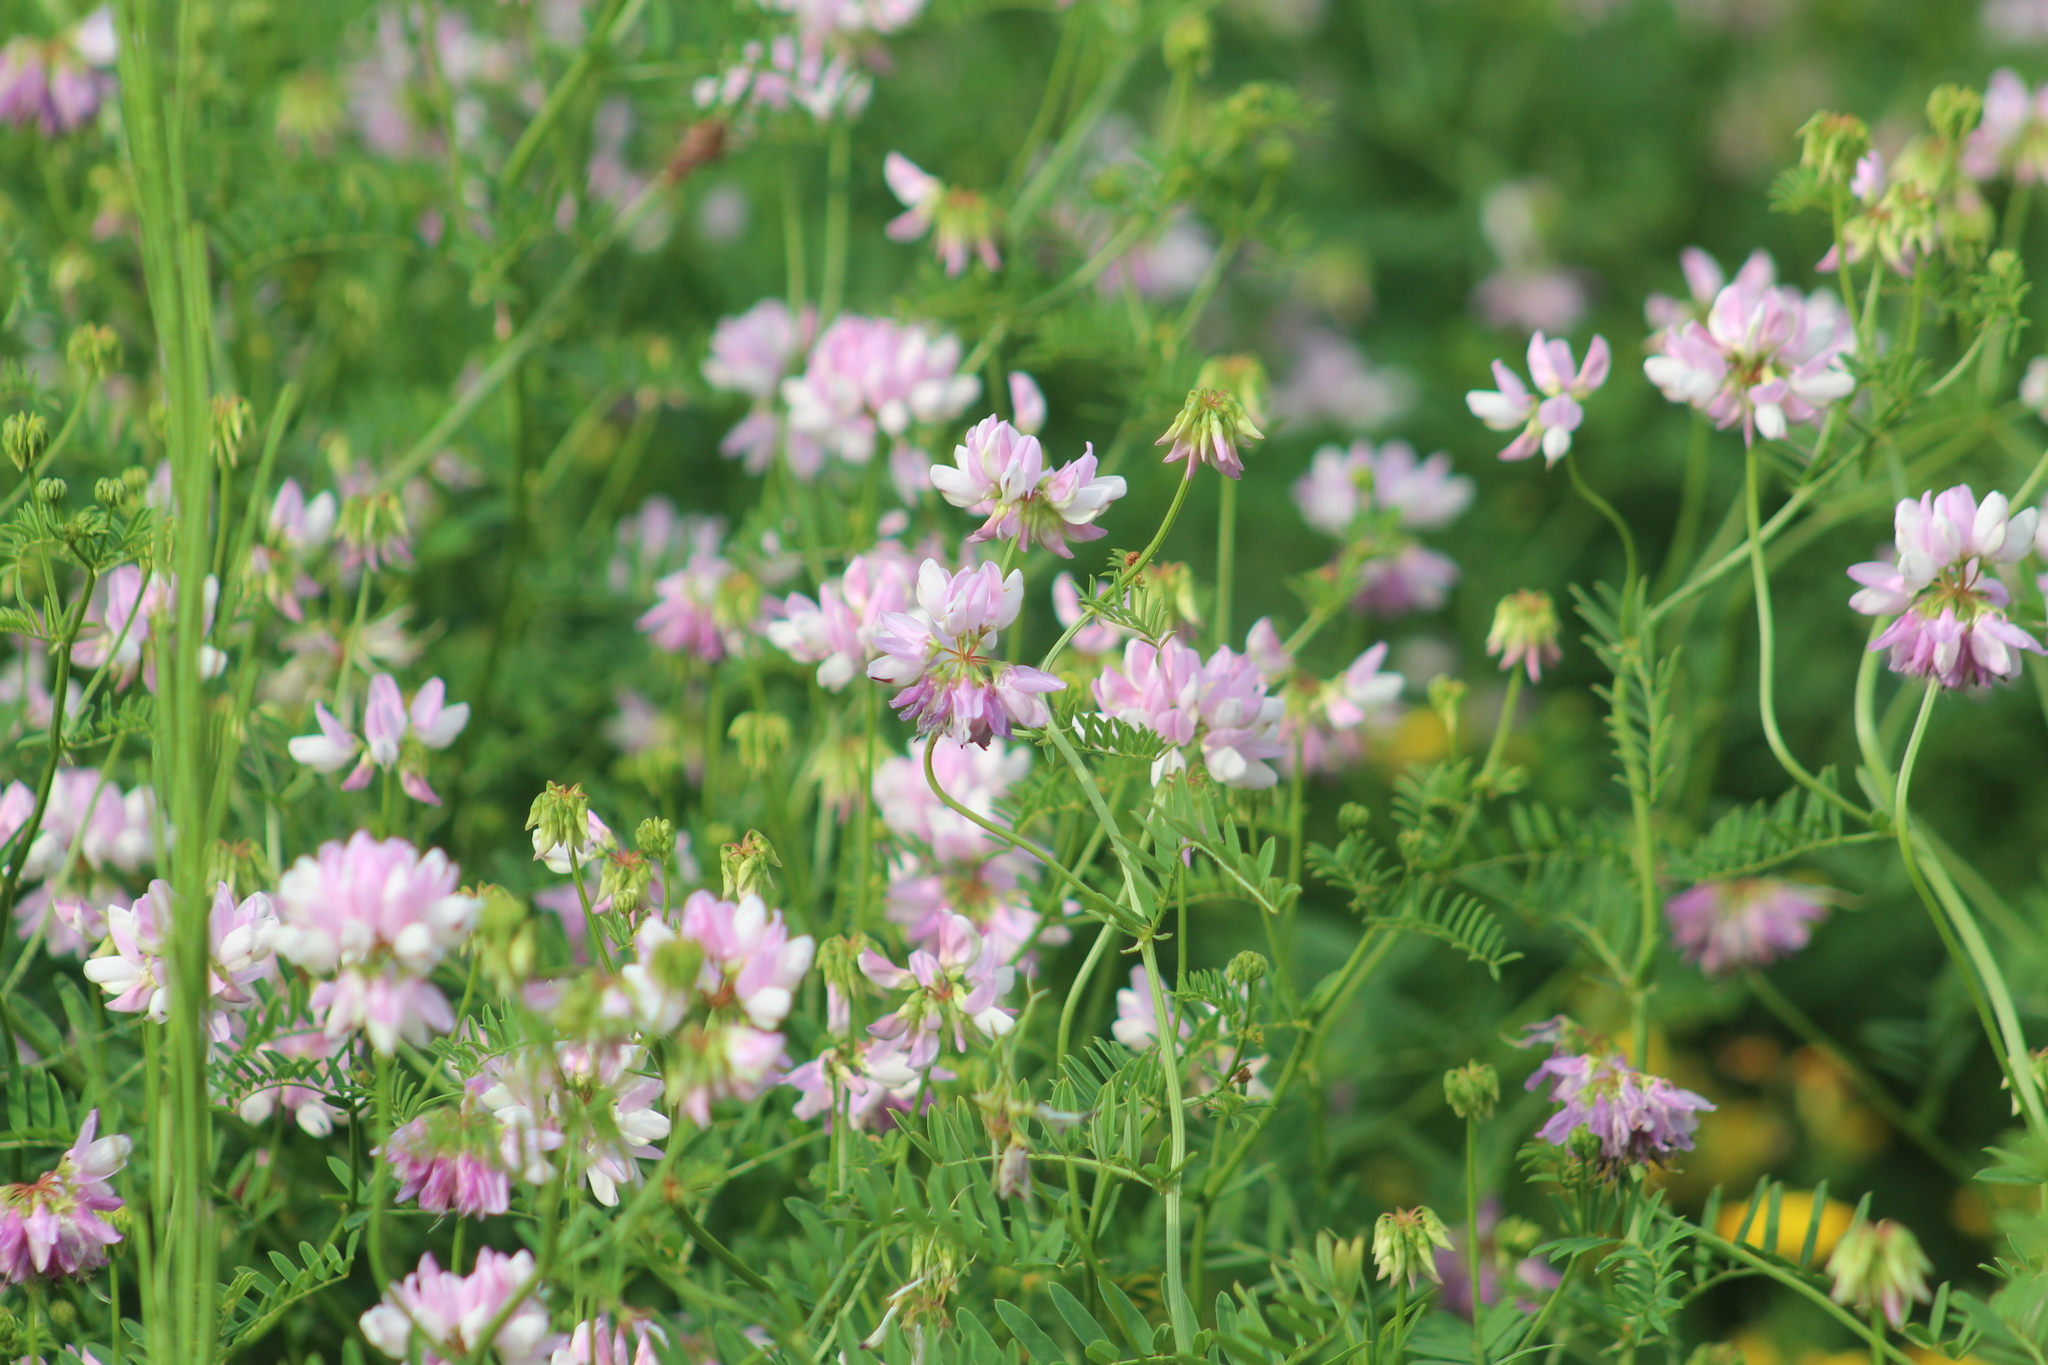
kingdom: Plantae
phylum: Tracheophyta
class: Magnoliopsida
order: Fabales
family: Fabaceae
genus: Coronilla
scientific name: Coronilla varia
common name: Crownvetch
